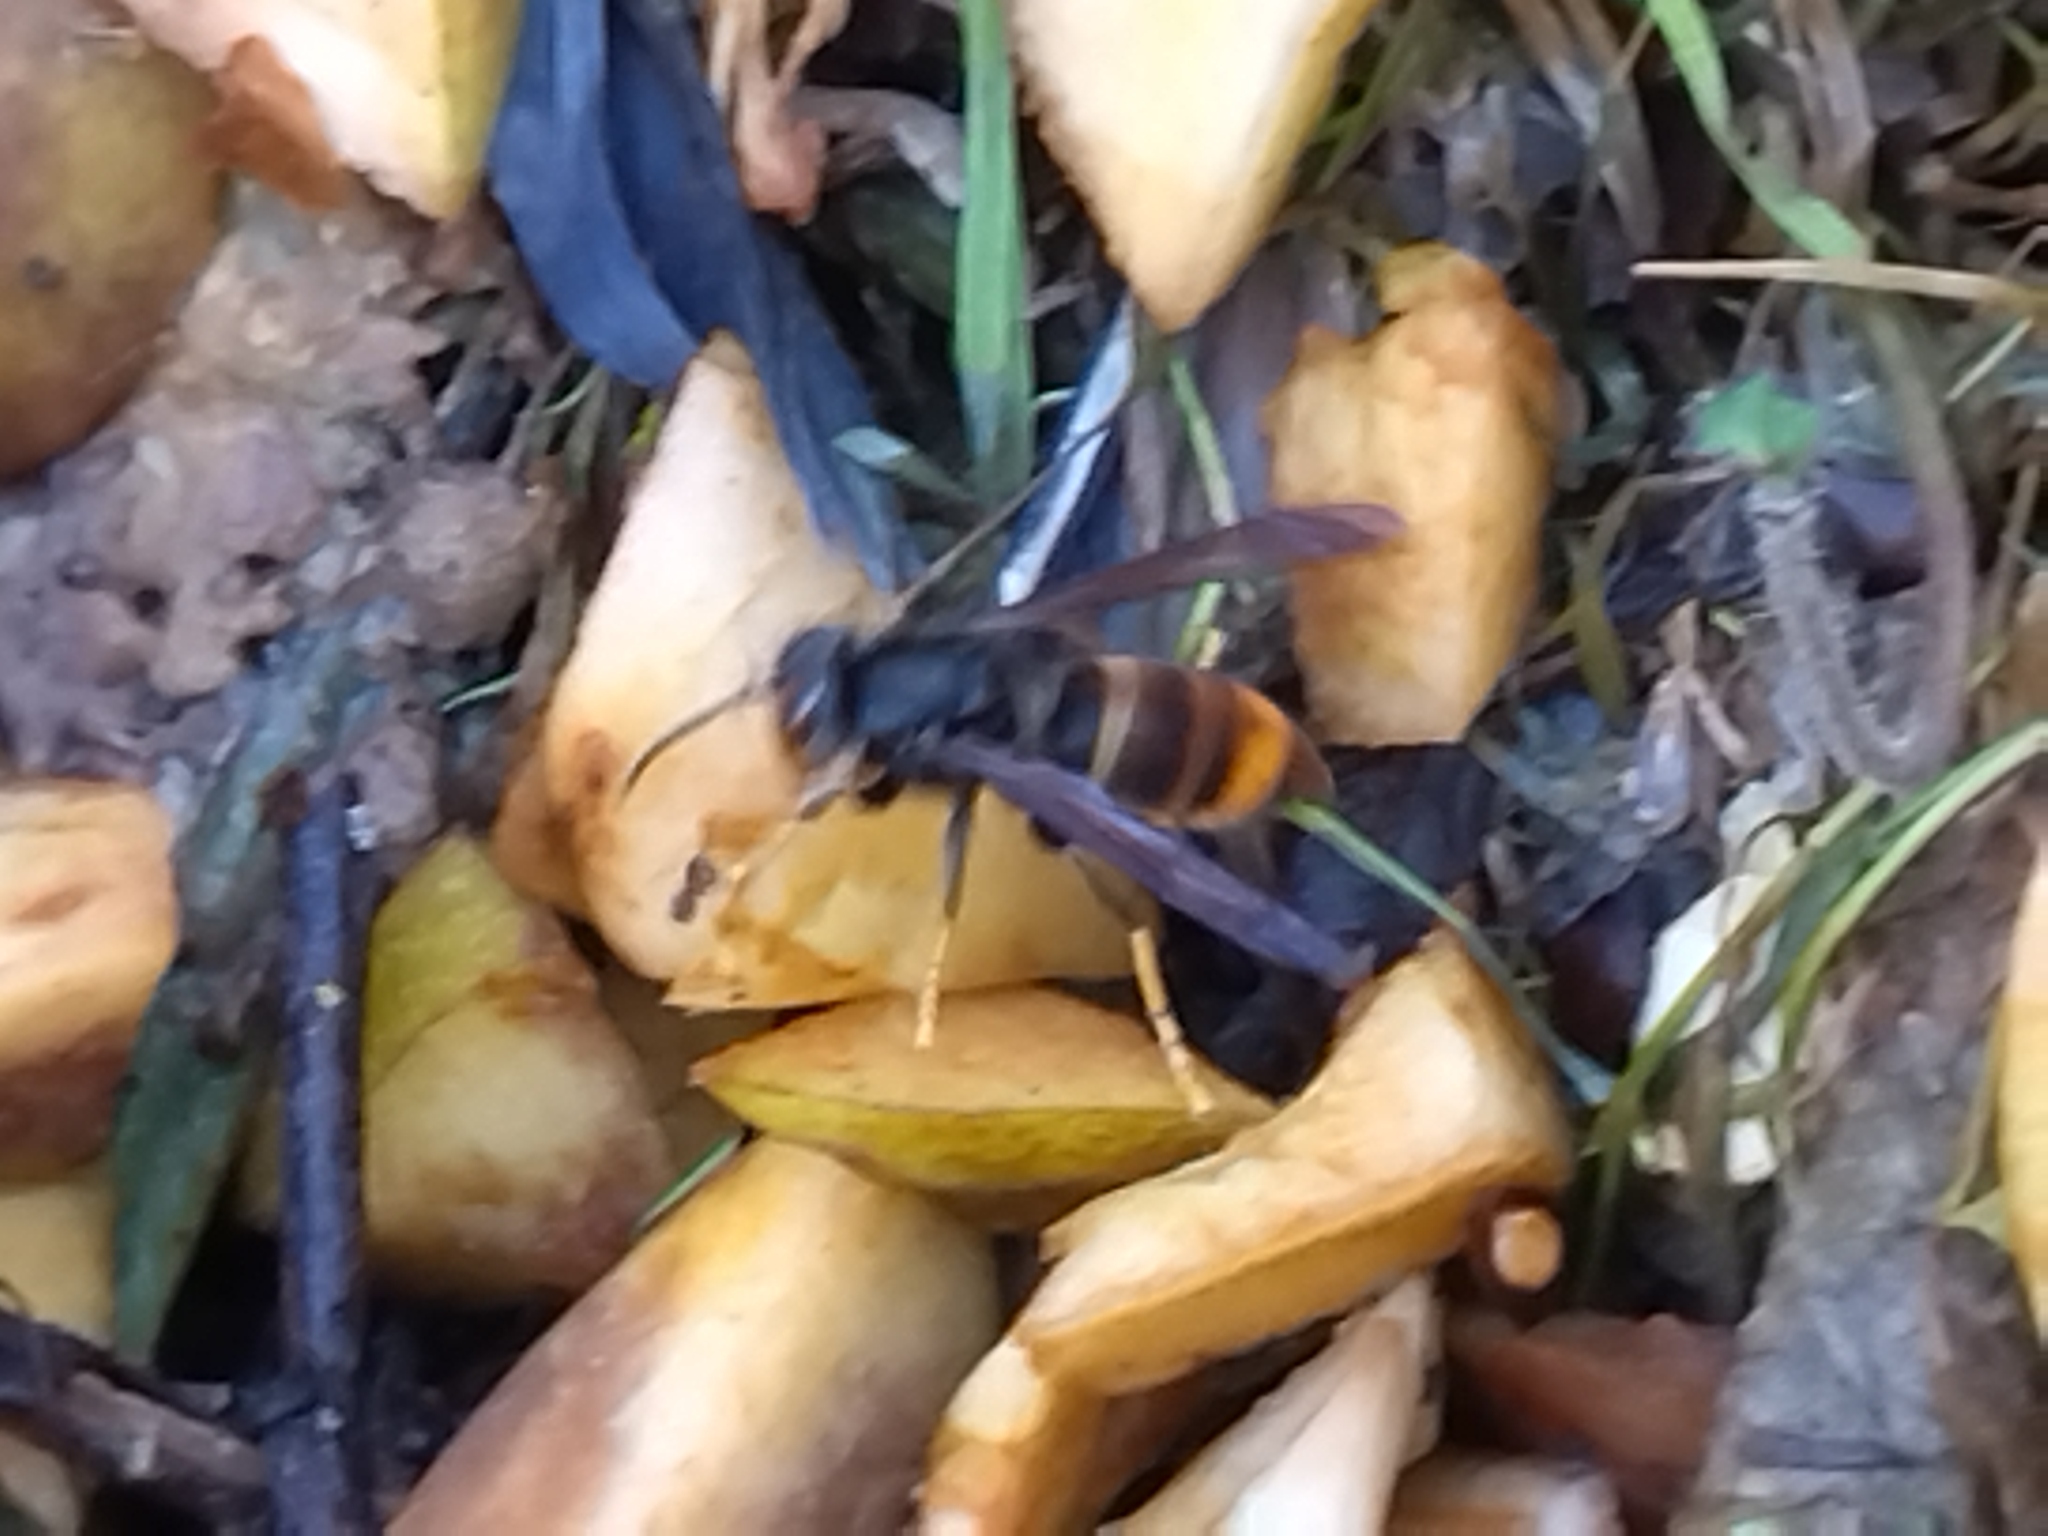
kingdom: Animalia
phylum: Arthropoda
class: Insecta
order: Hymenoptera
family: Vespidae
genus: Vespa
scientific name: Vespa velutina
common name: Asian hornet
